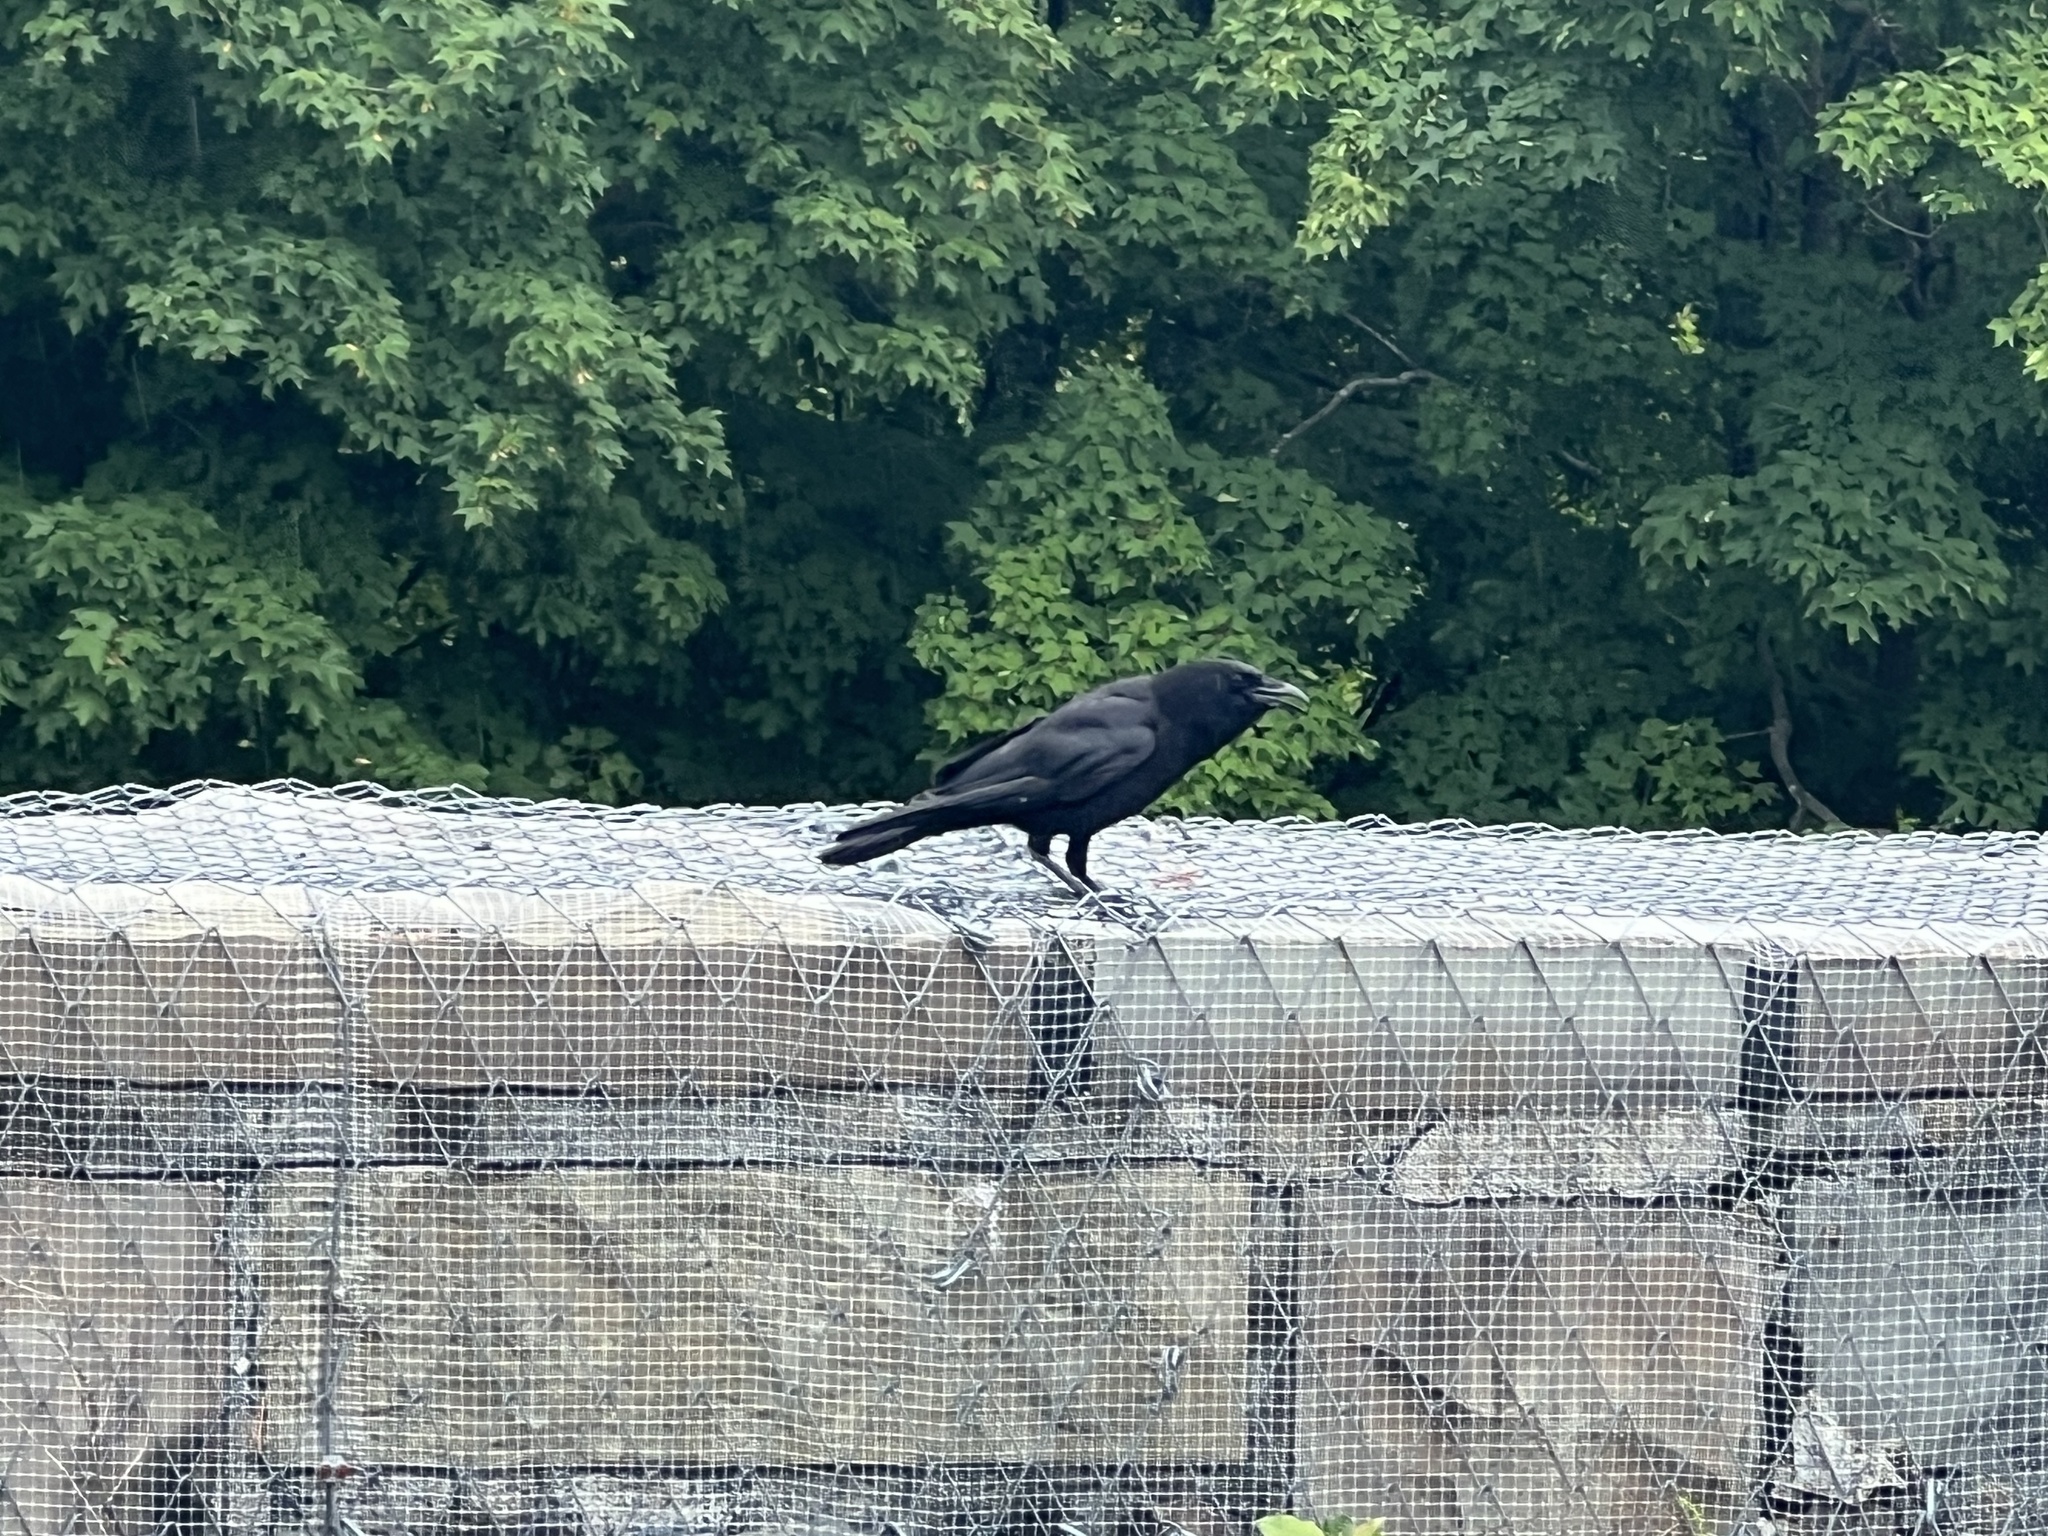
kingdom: Animalia
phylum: Chordata
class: Aves
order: Passeriformes
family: Corvidae
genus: Corvus
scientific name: Corvus brachyrhynchos
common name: American crow
